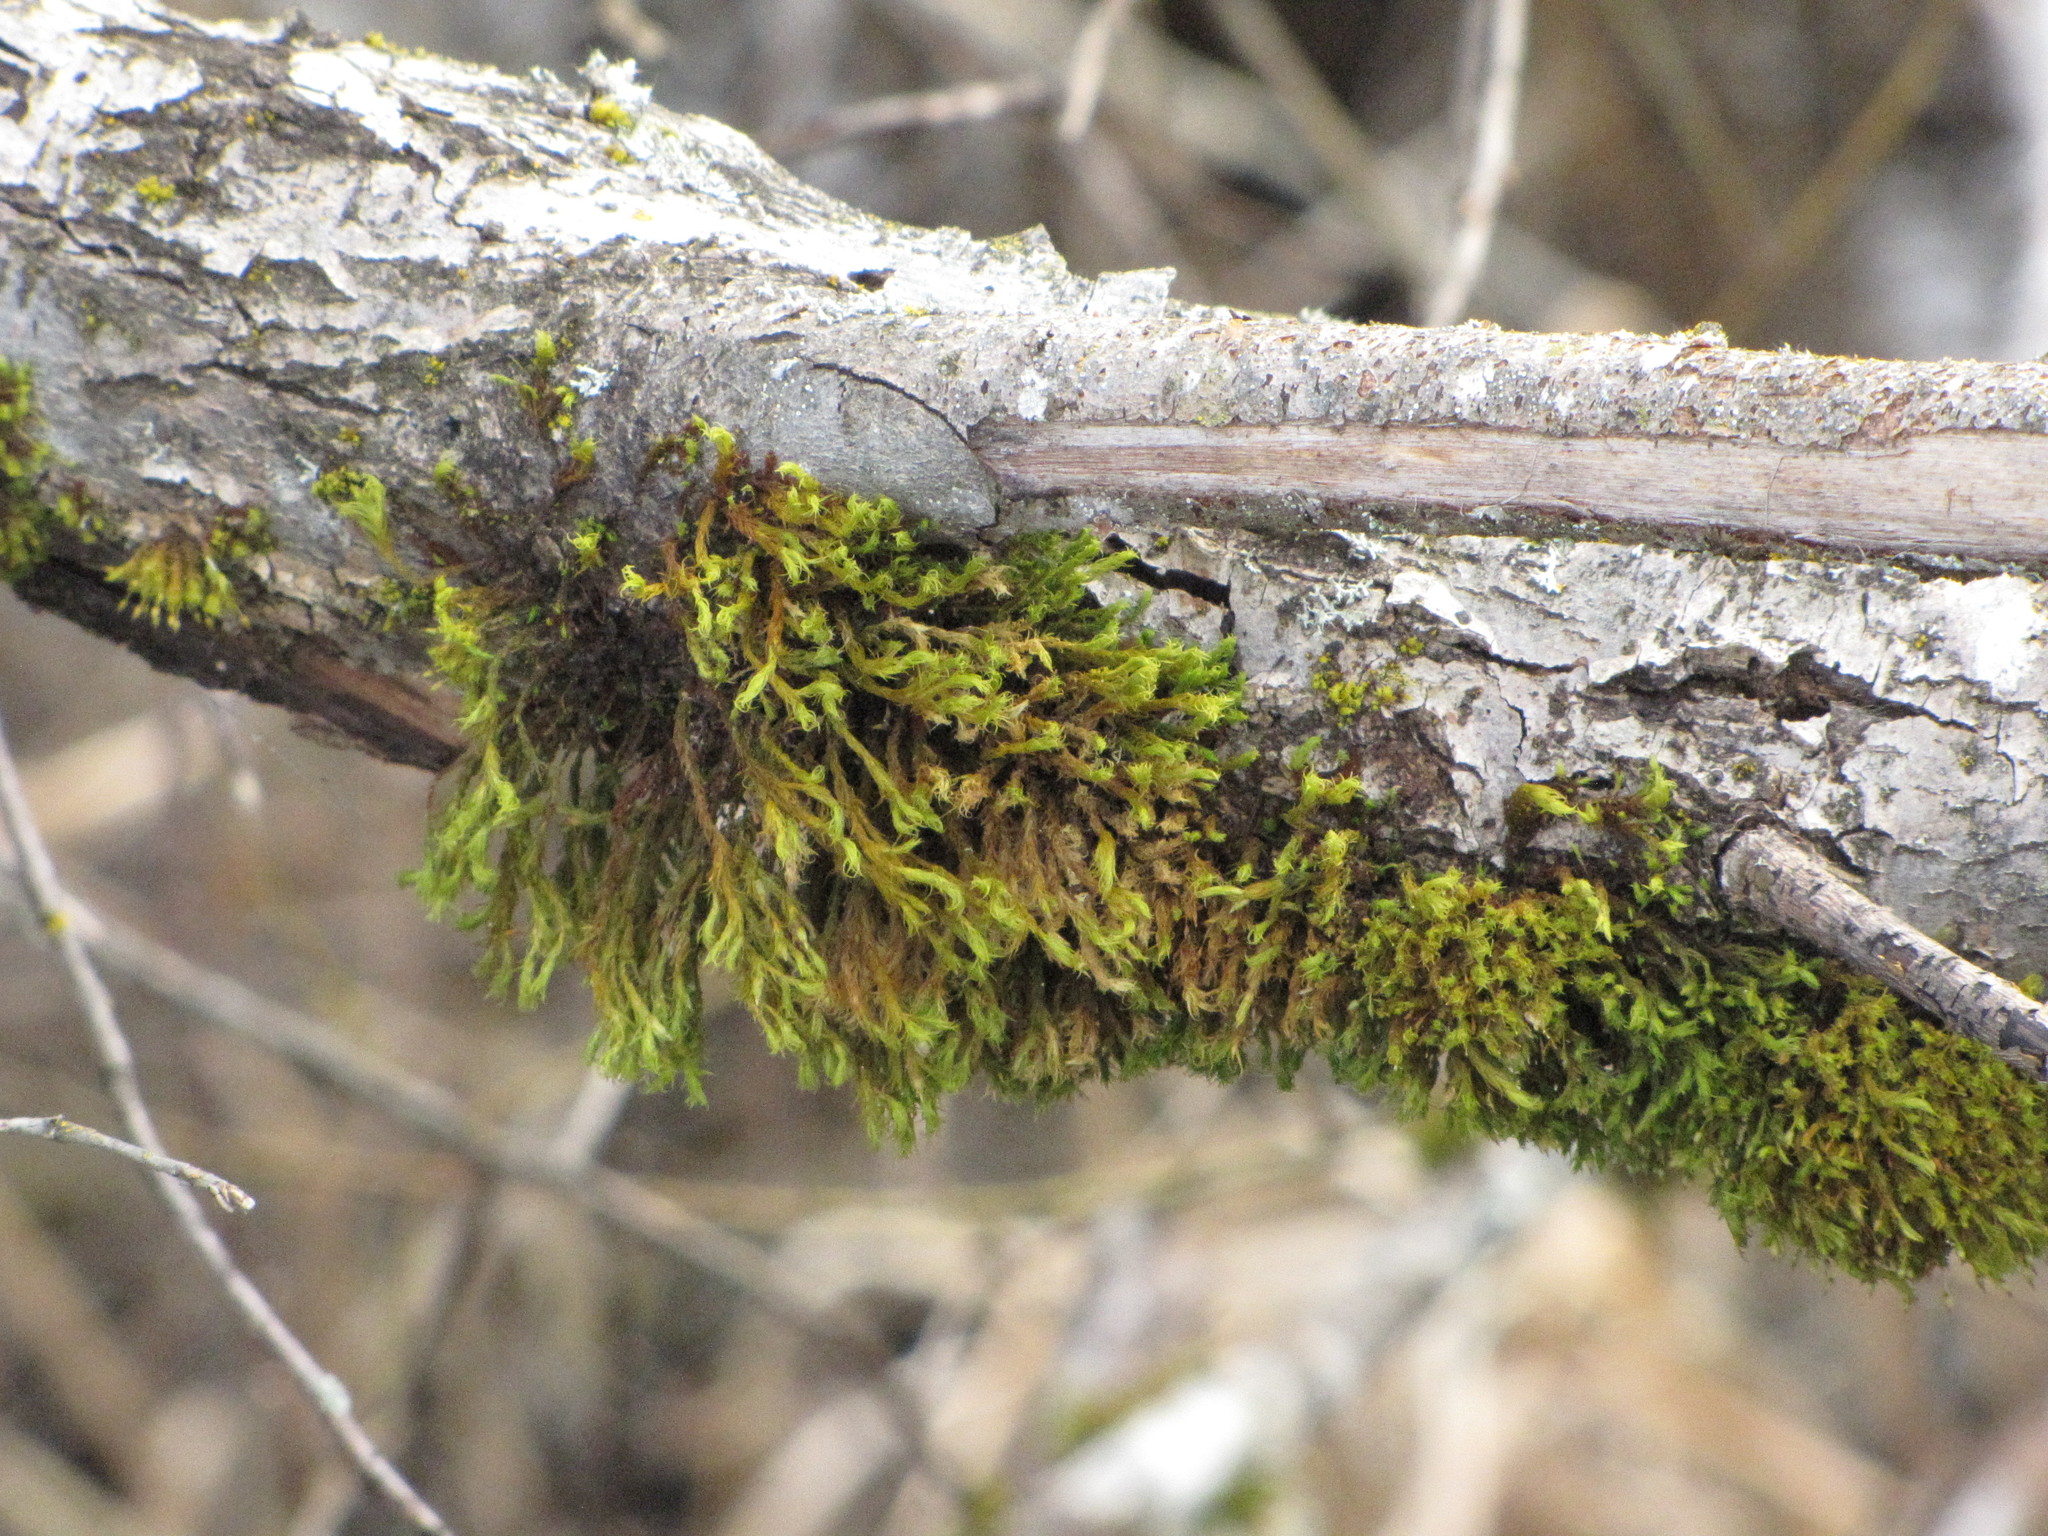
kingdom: Plantae
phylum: Bryophyta
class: Bryopsida
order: Orthotrichales
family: Orthotrichaceae
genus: Pulvigera
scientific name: Pulvigera lyellii
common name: Lyell's bristle-moss
